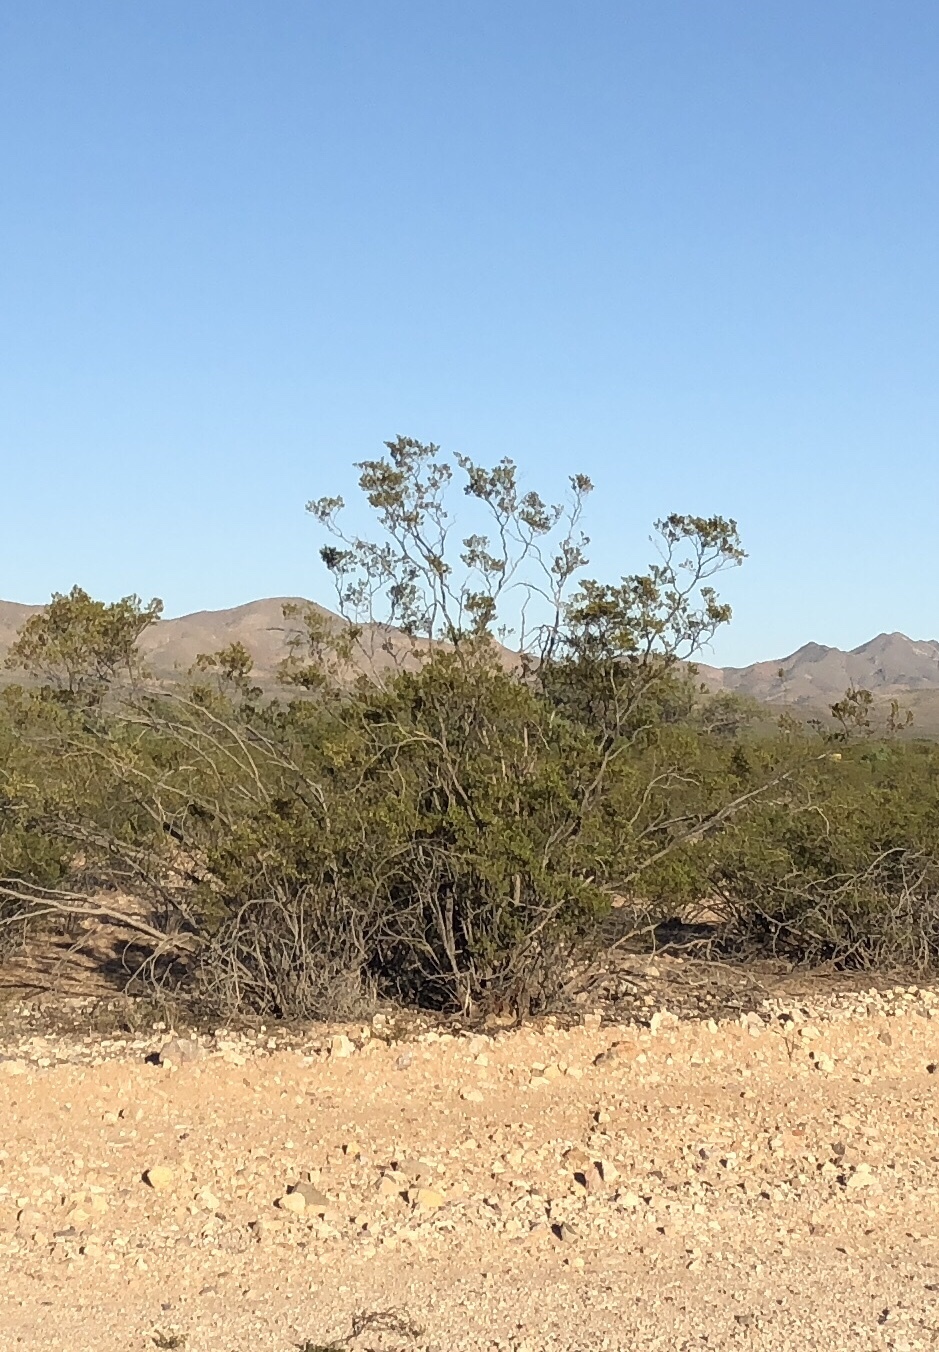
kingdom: Plantae
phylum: Tracheophyta
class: Magnoliopsida
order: Zygophyllales
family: Zygophyllaceae
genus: Larrea
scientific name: Larrea tridentata
